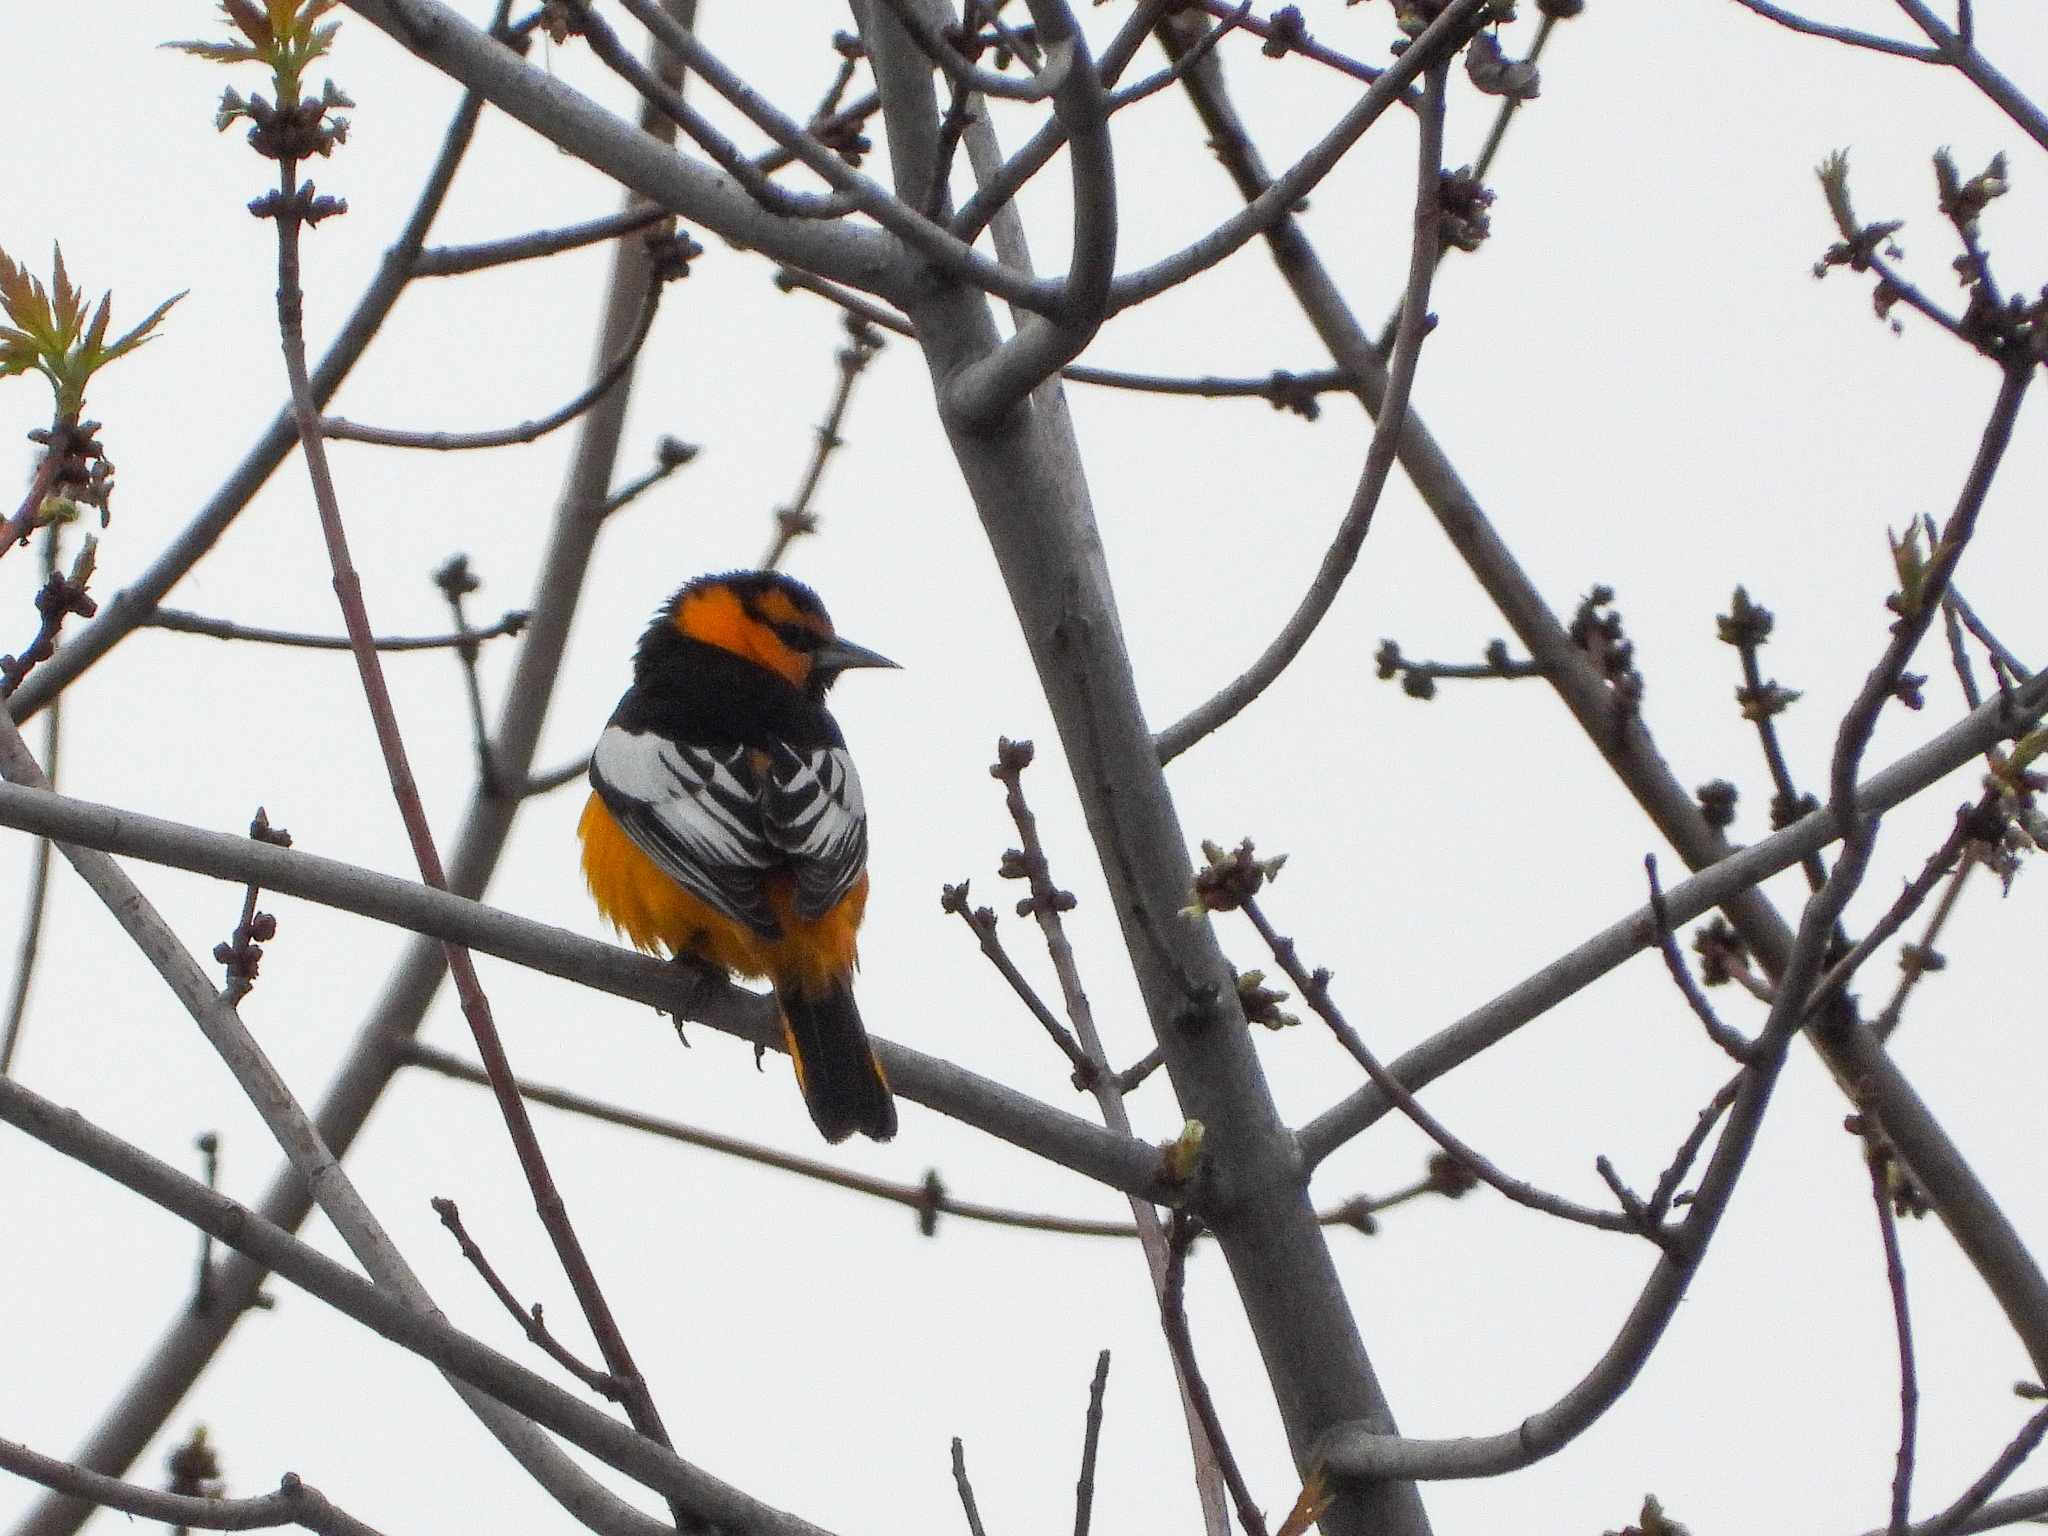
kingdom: Animalia
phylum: Chordata
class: Aves
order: Passeriformes
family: Icteridae
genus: Icterus
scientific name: Icterus bullockii
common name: Bullock's oriole
